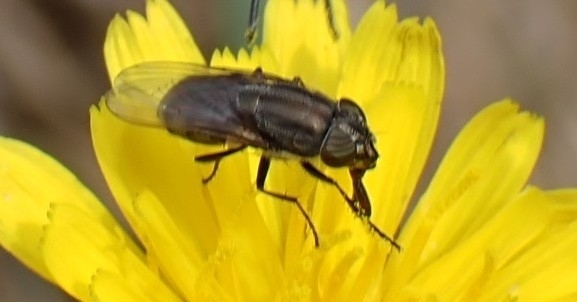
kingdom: Animalia
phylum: Arthropoda
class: Insecta
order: Diptera
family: Calliphoridae
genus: Stomorhina
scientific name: Stomorhina lunata
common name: Locust blowfly
